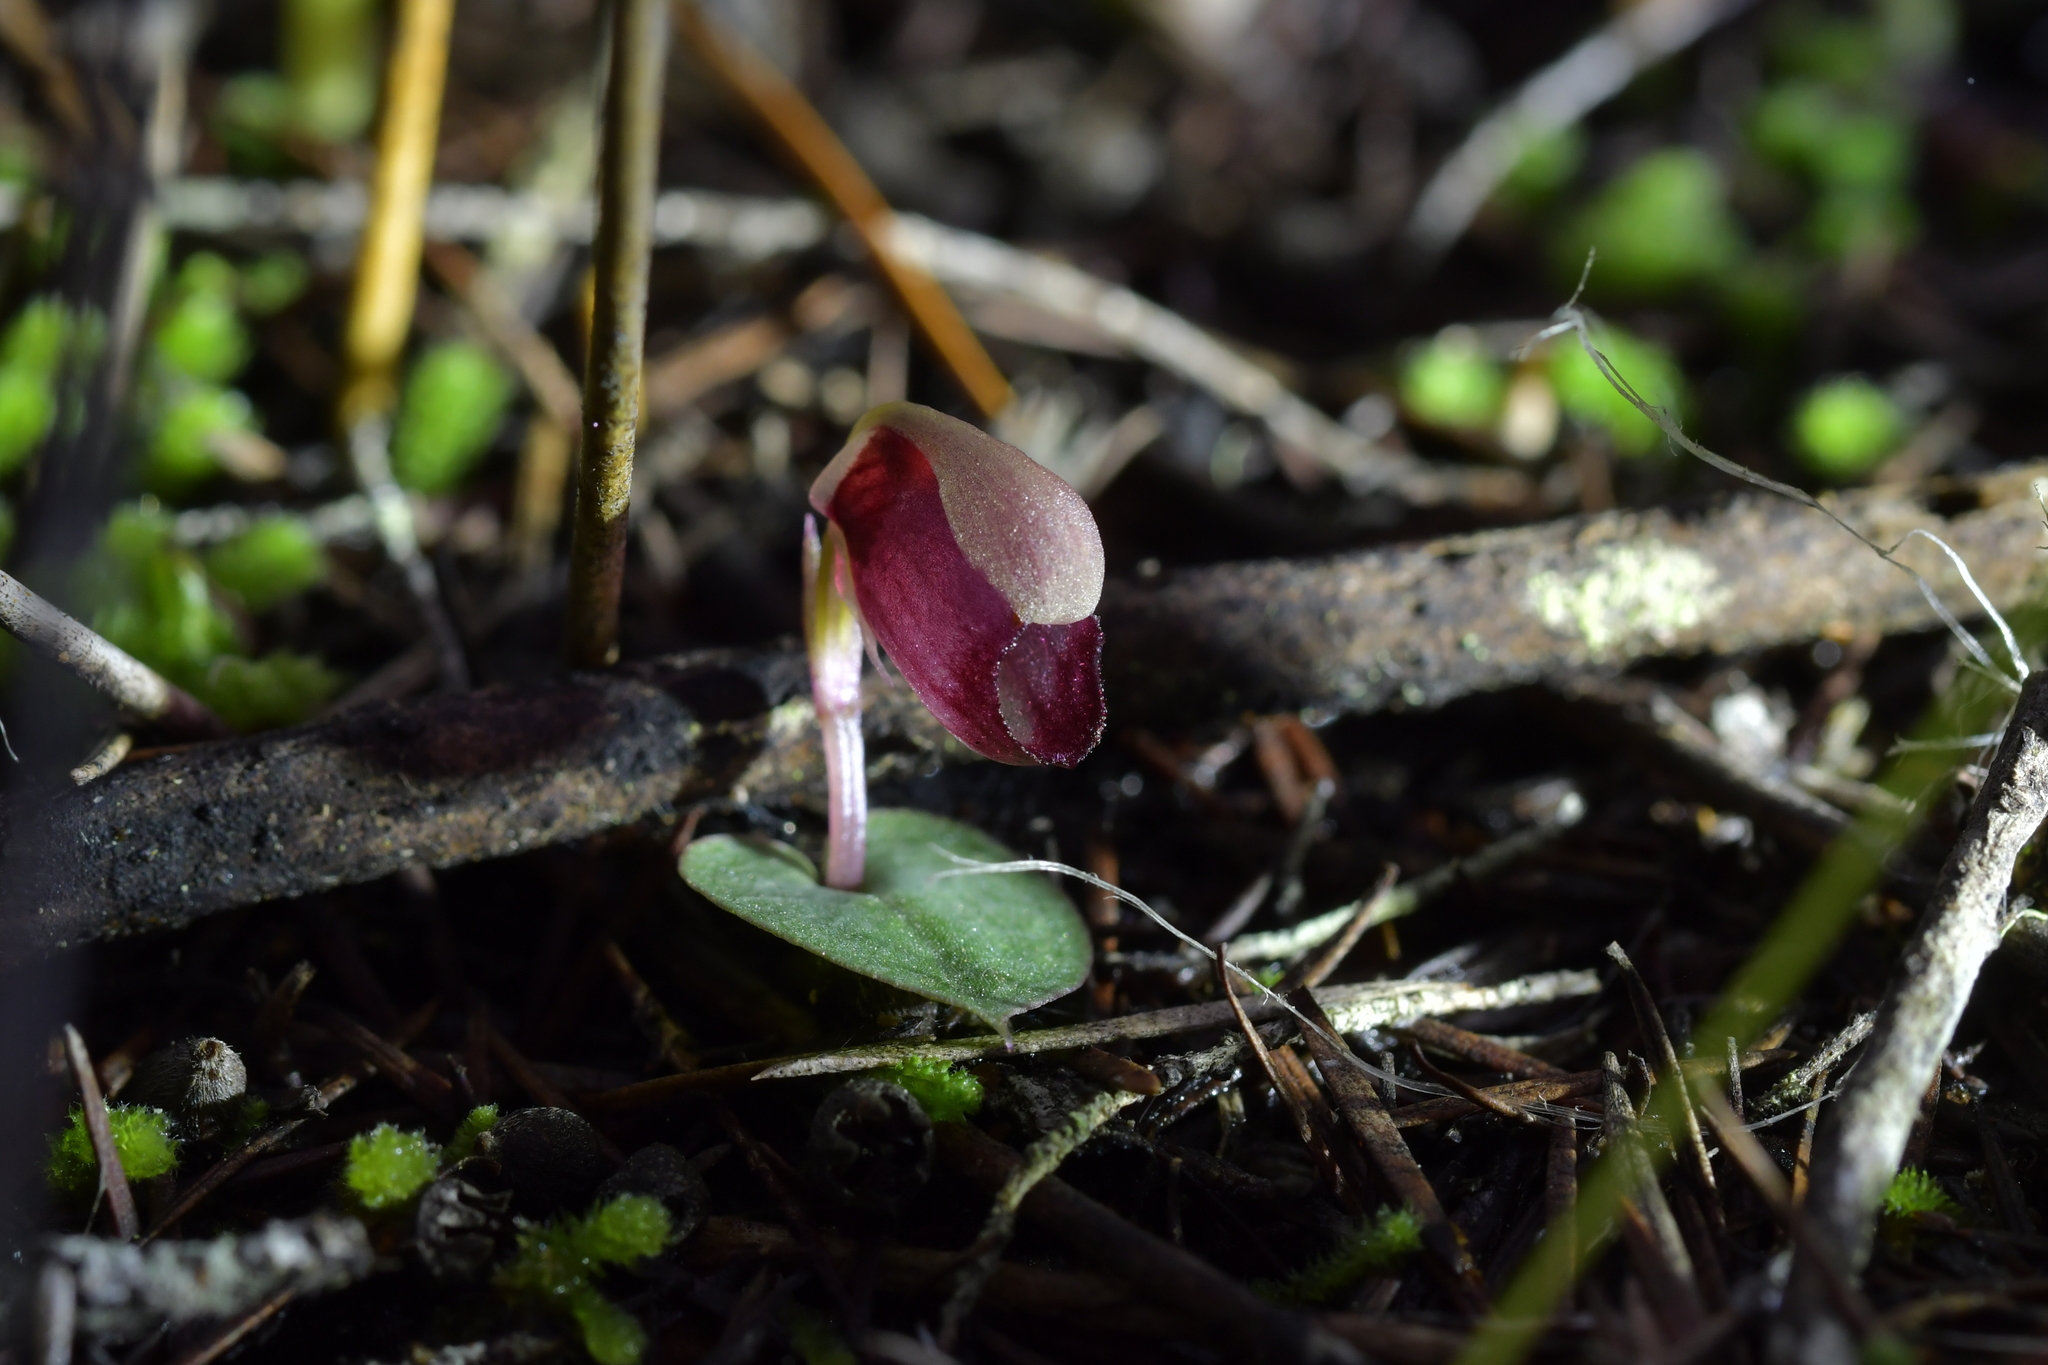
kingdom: Plantae
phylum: Tracheophyta
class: Liliopsida
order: Asparagales
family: Orchidaceae
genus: Corybas
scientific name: Corybas rotundifolius
